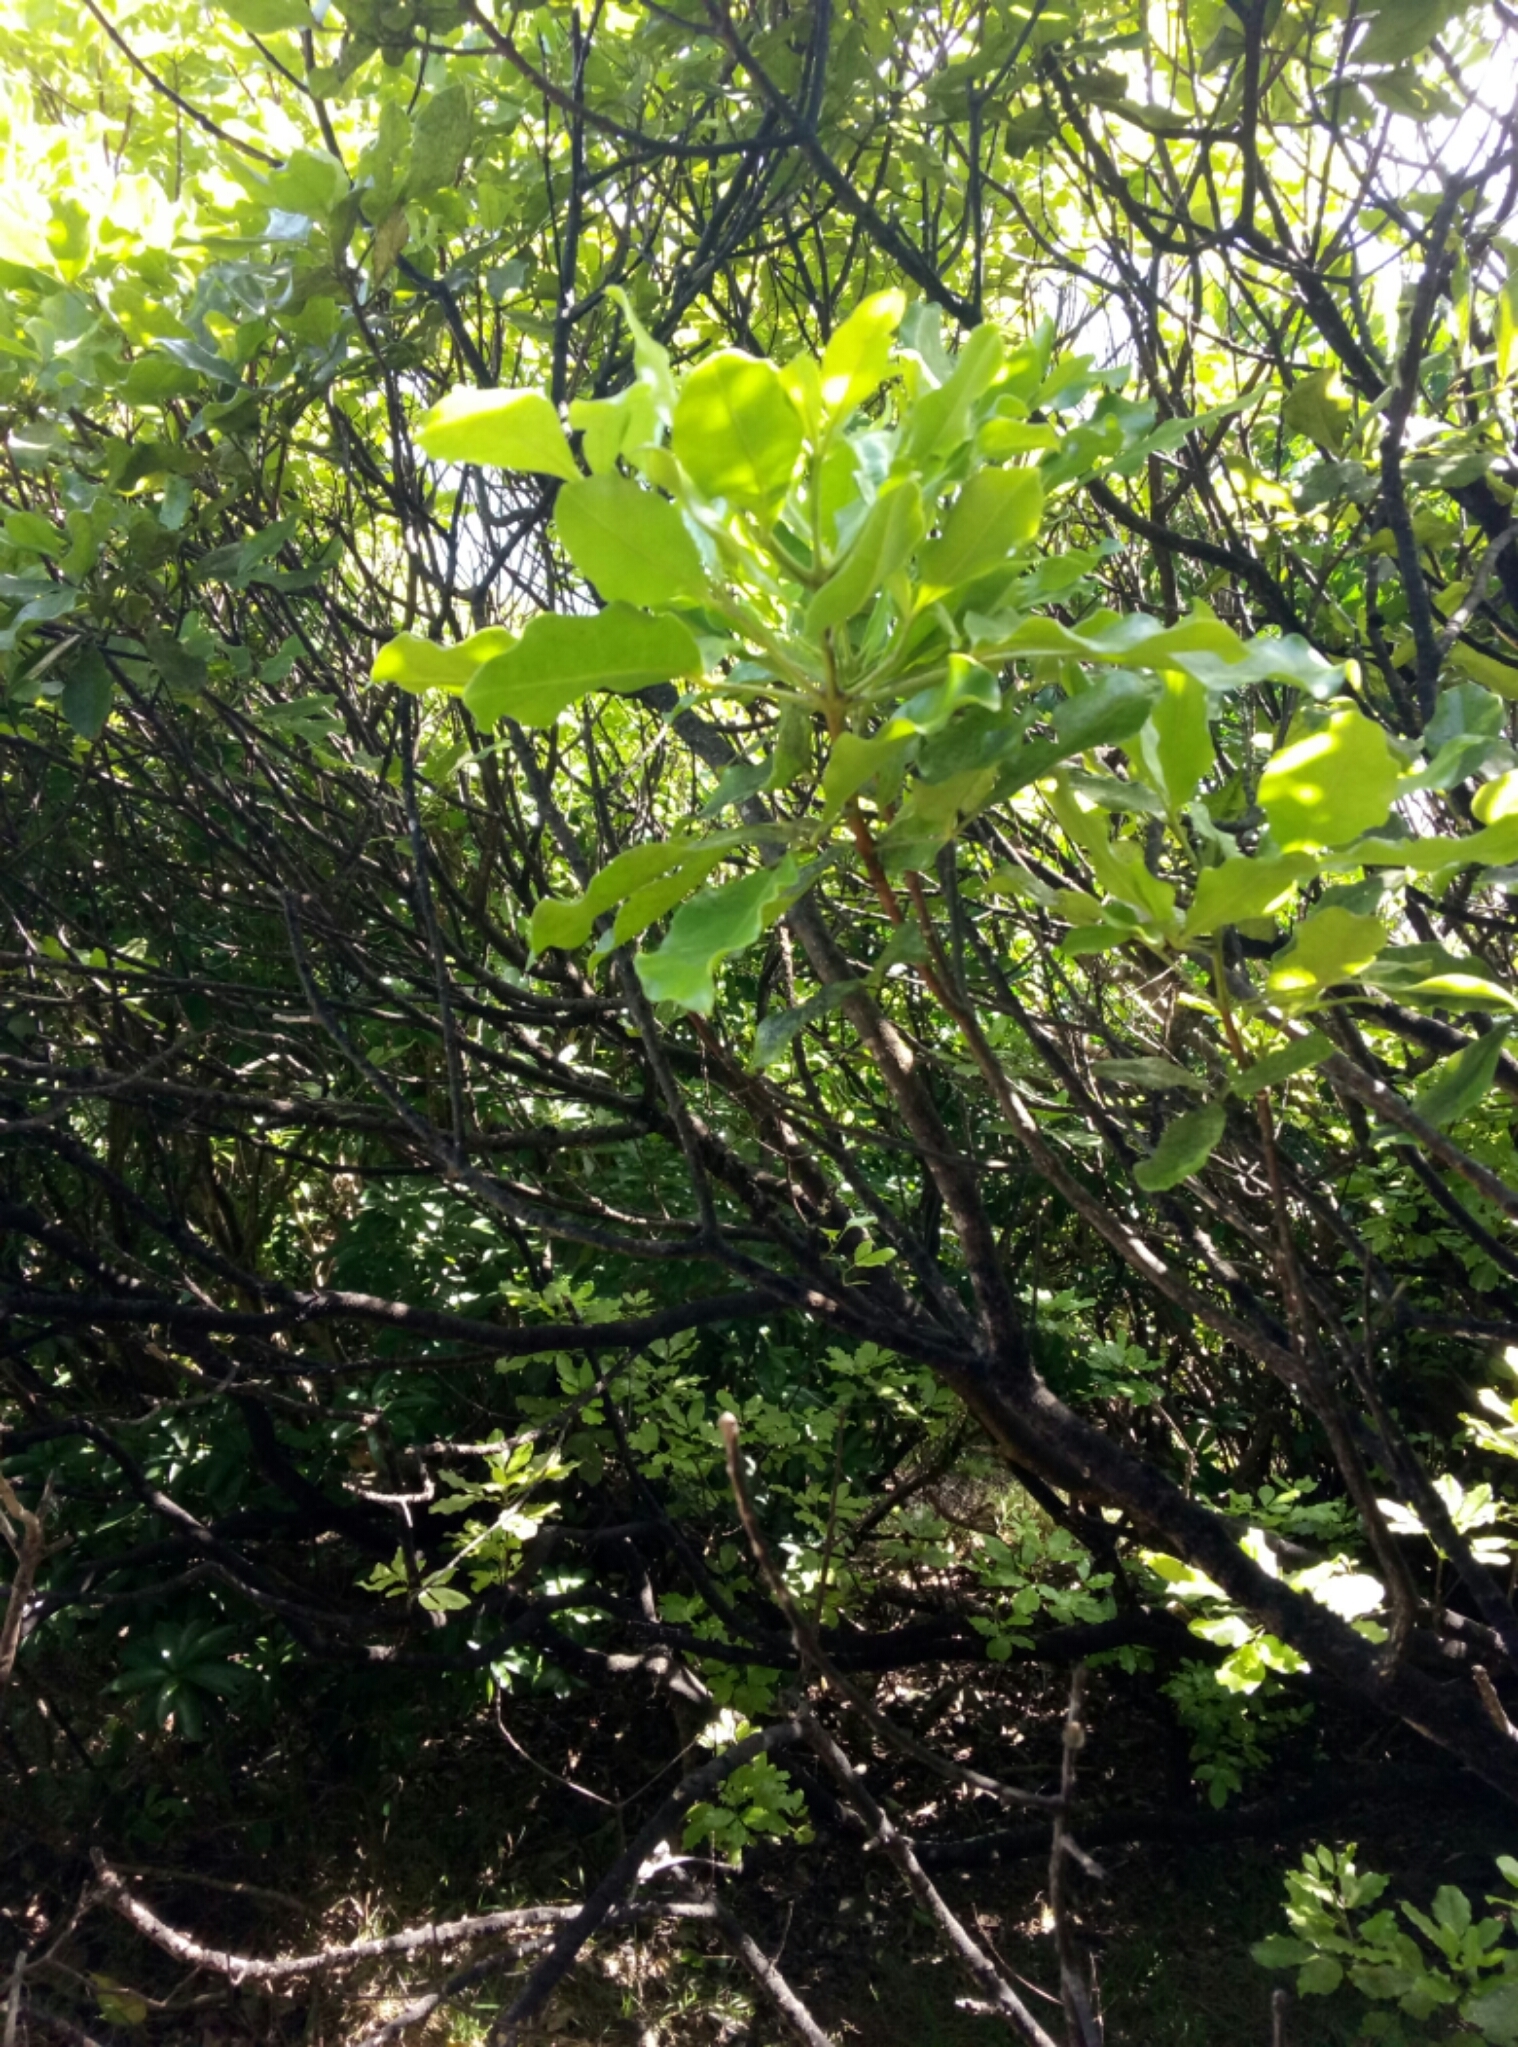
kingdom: Plantae
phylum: Tracheophyta
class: Magnoliopsida
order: Sapindales
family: Rutaceae
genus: Melicope
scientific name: Melicope ternata
